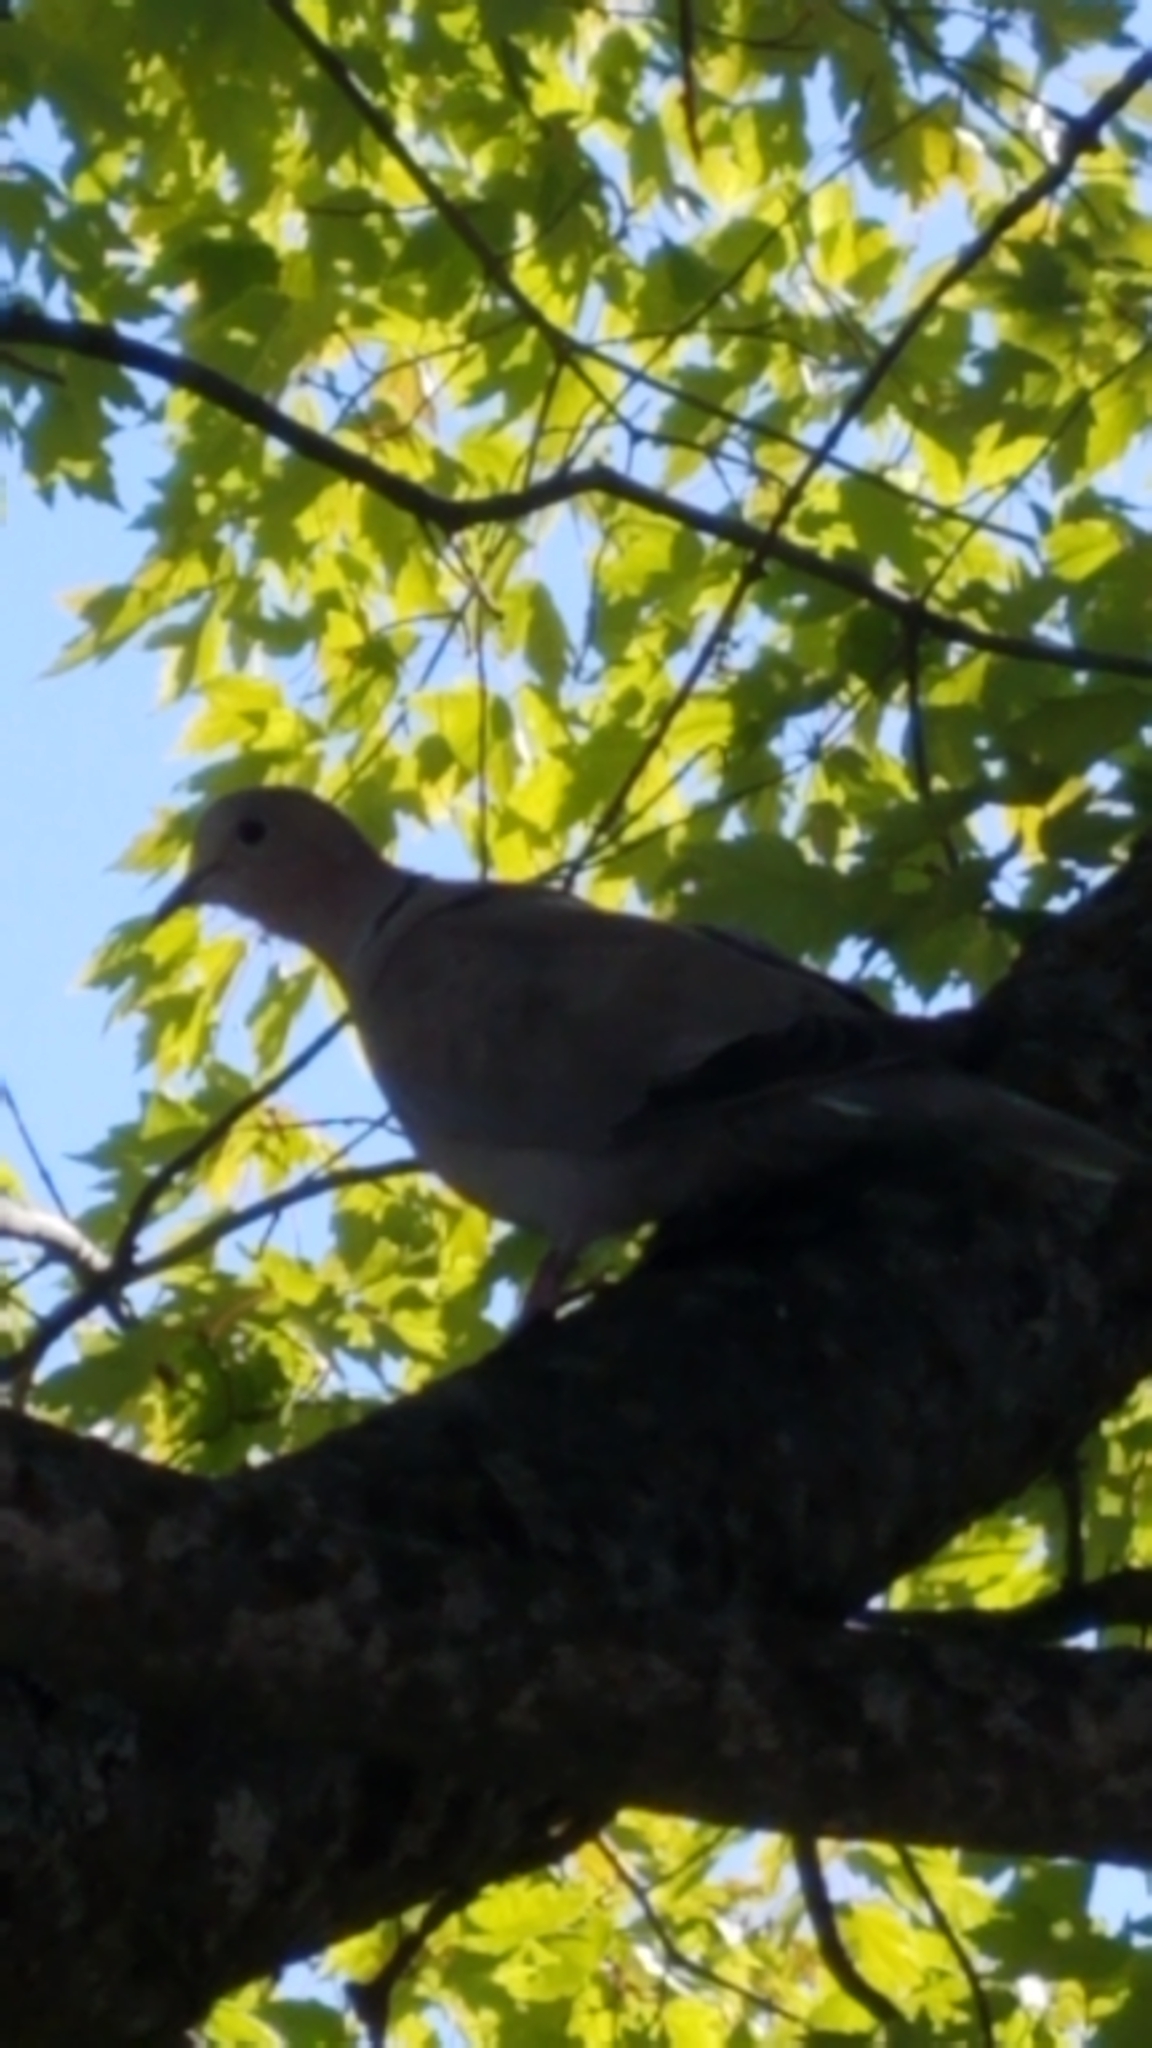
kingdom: Animalia
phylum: Chordata
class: Aves
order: Columbiformes
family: Columbidae
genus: Streptopelia
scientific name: Streptopelia decaocto
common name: Eurasian collared dove
